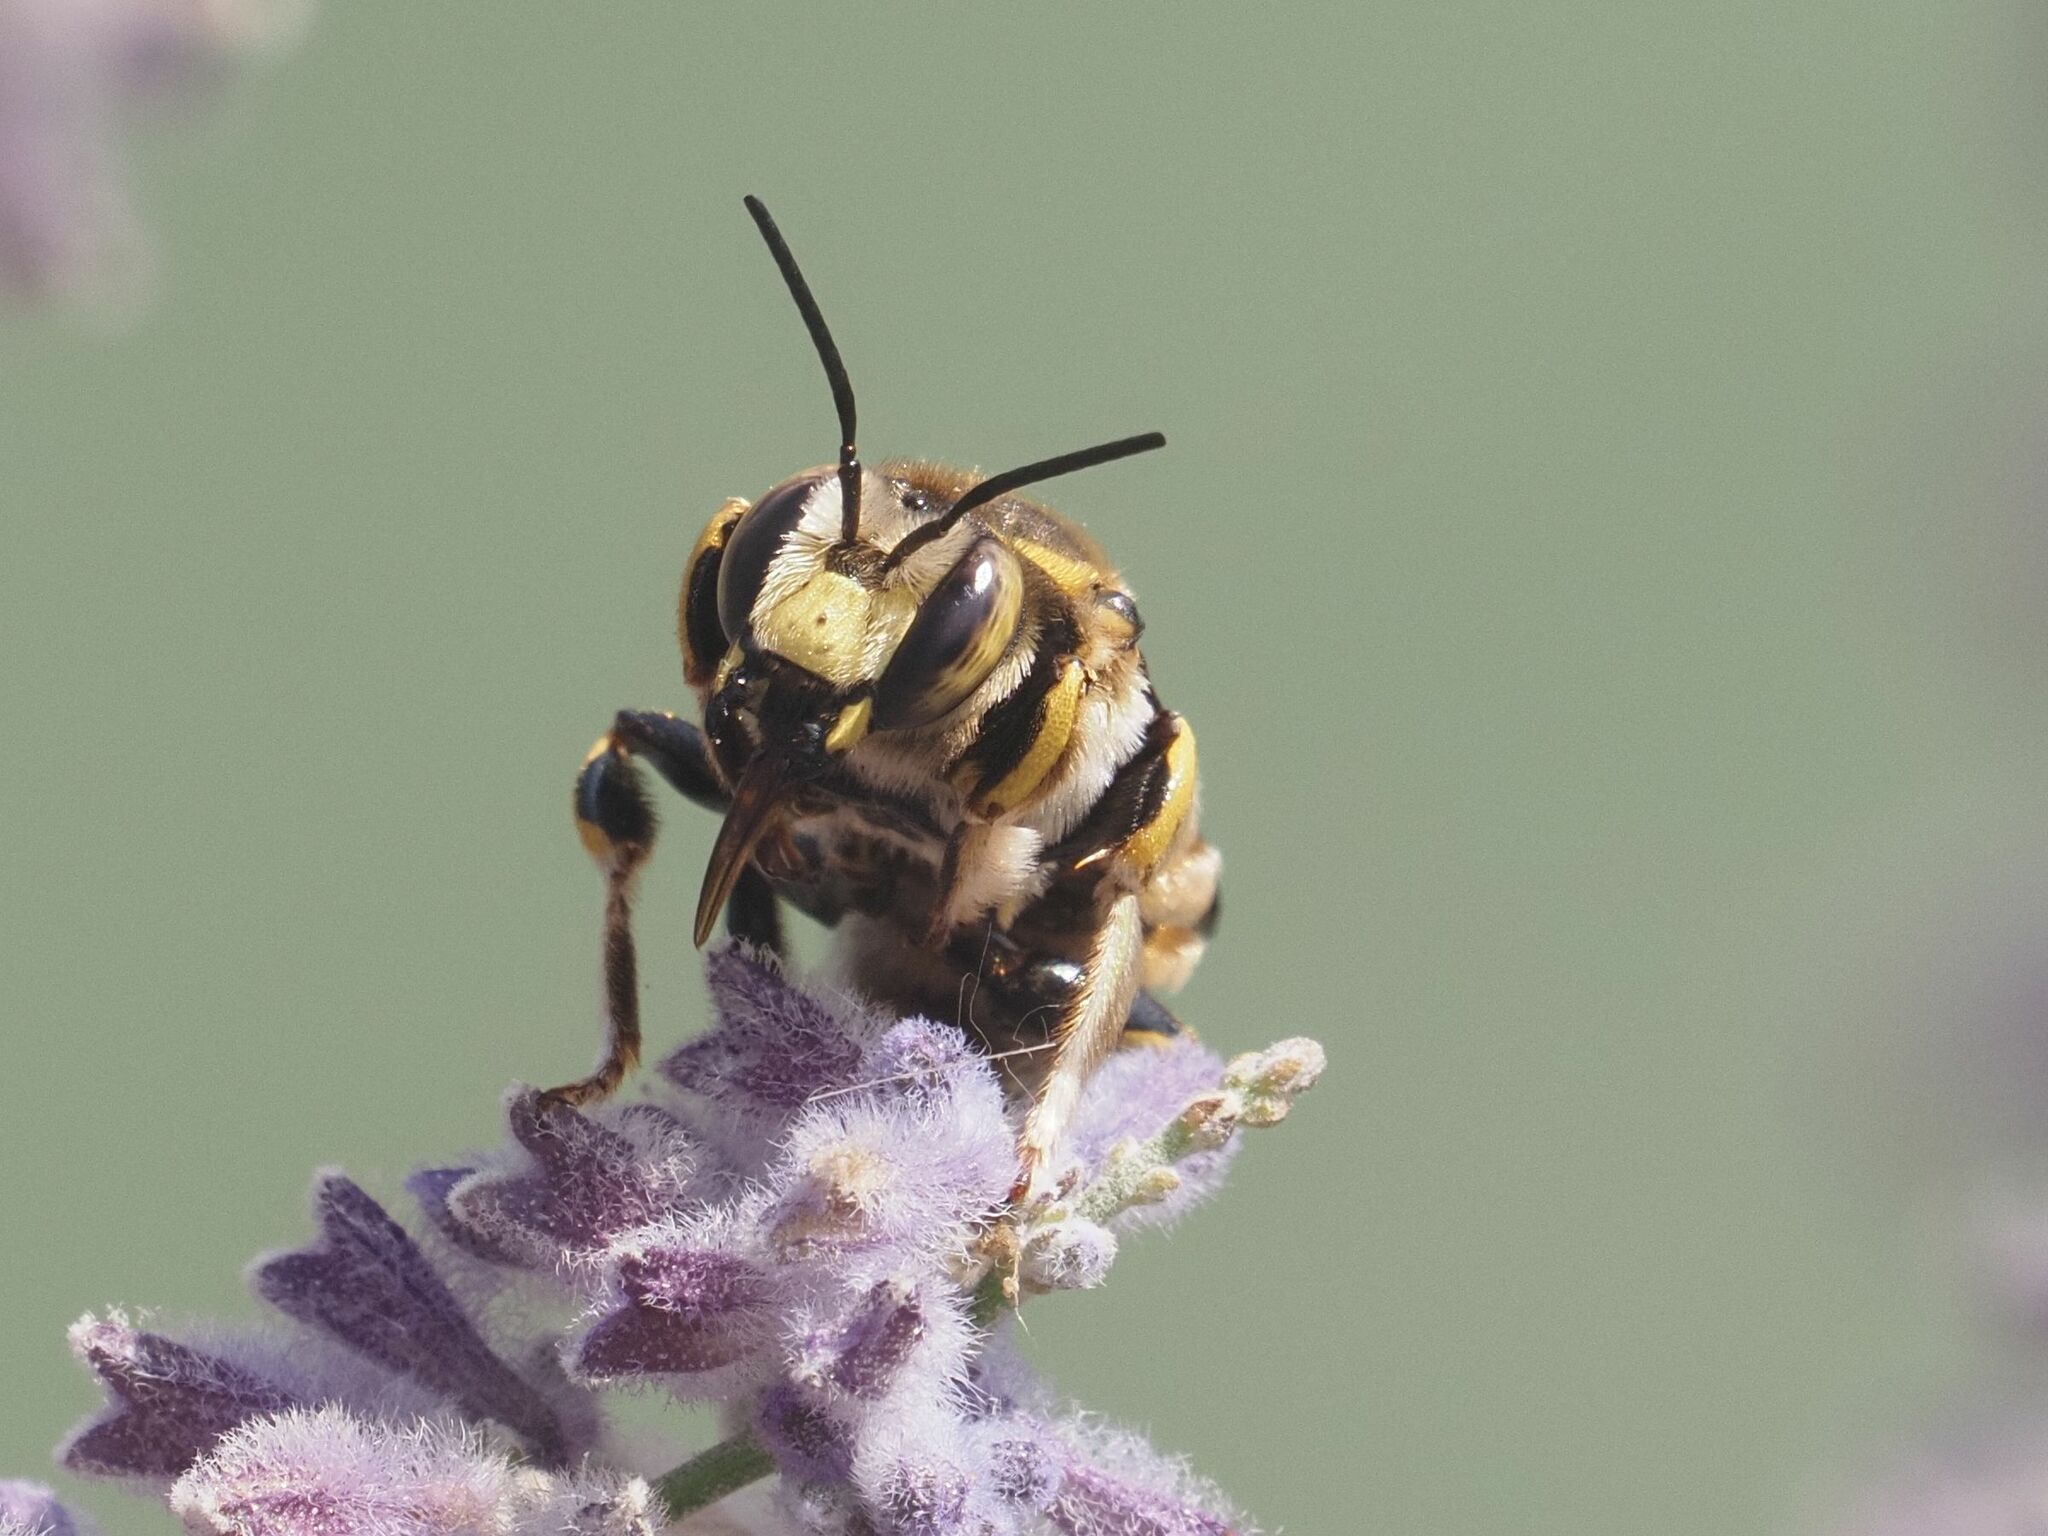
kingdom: Animalia
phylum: Arthropoda
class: Insecta
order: Hymenoptera
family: Megachilidae
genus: Anthidium
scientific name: Anthidium florentinum
